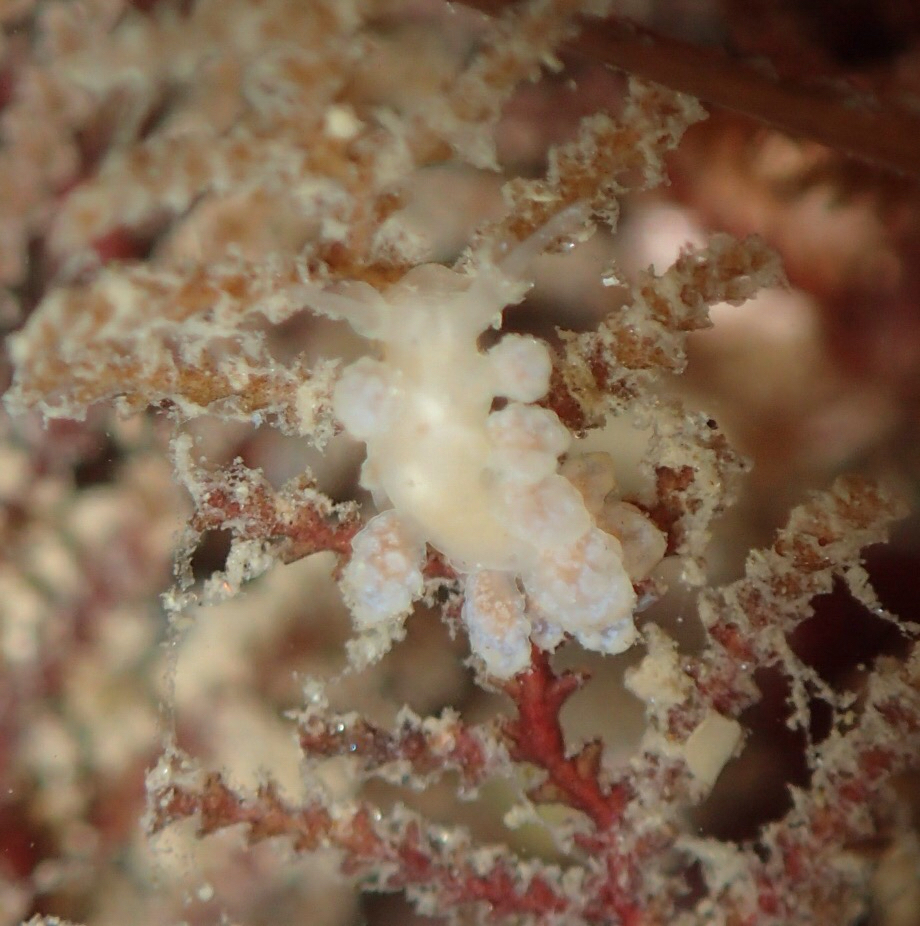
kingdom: Animalia
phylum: Mollusca
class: Gastropoda
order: Nudibranchia
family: Dotidae
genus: Doto
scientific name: Doto amyra
